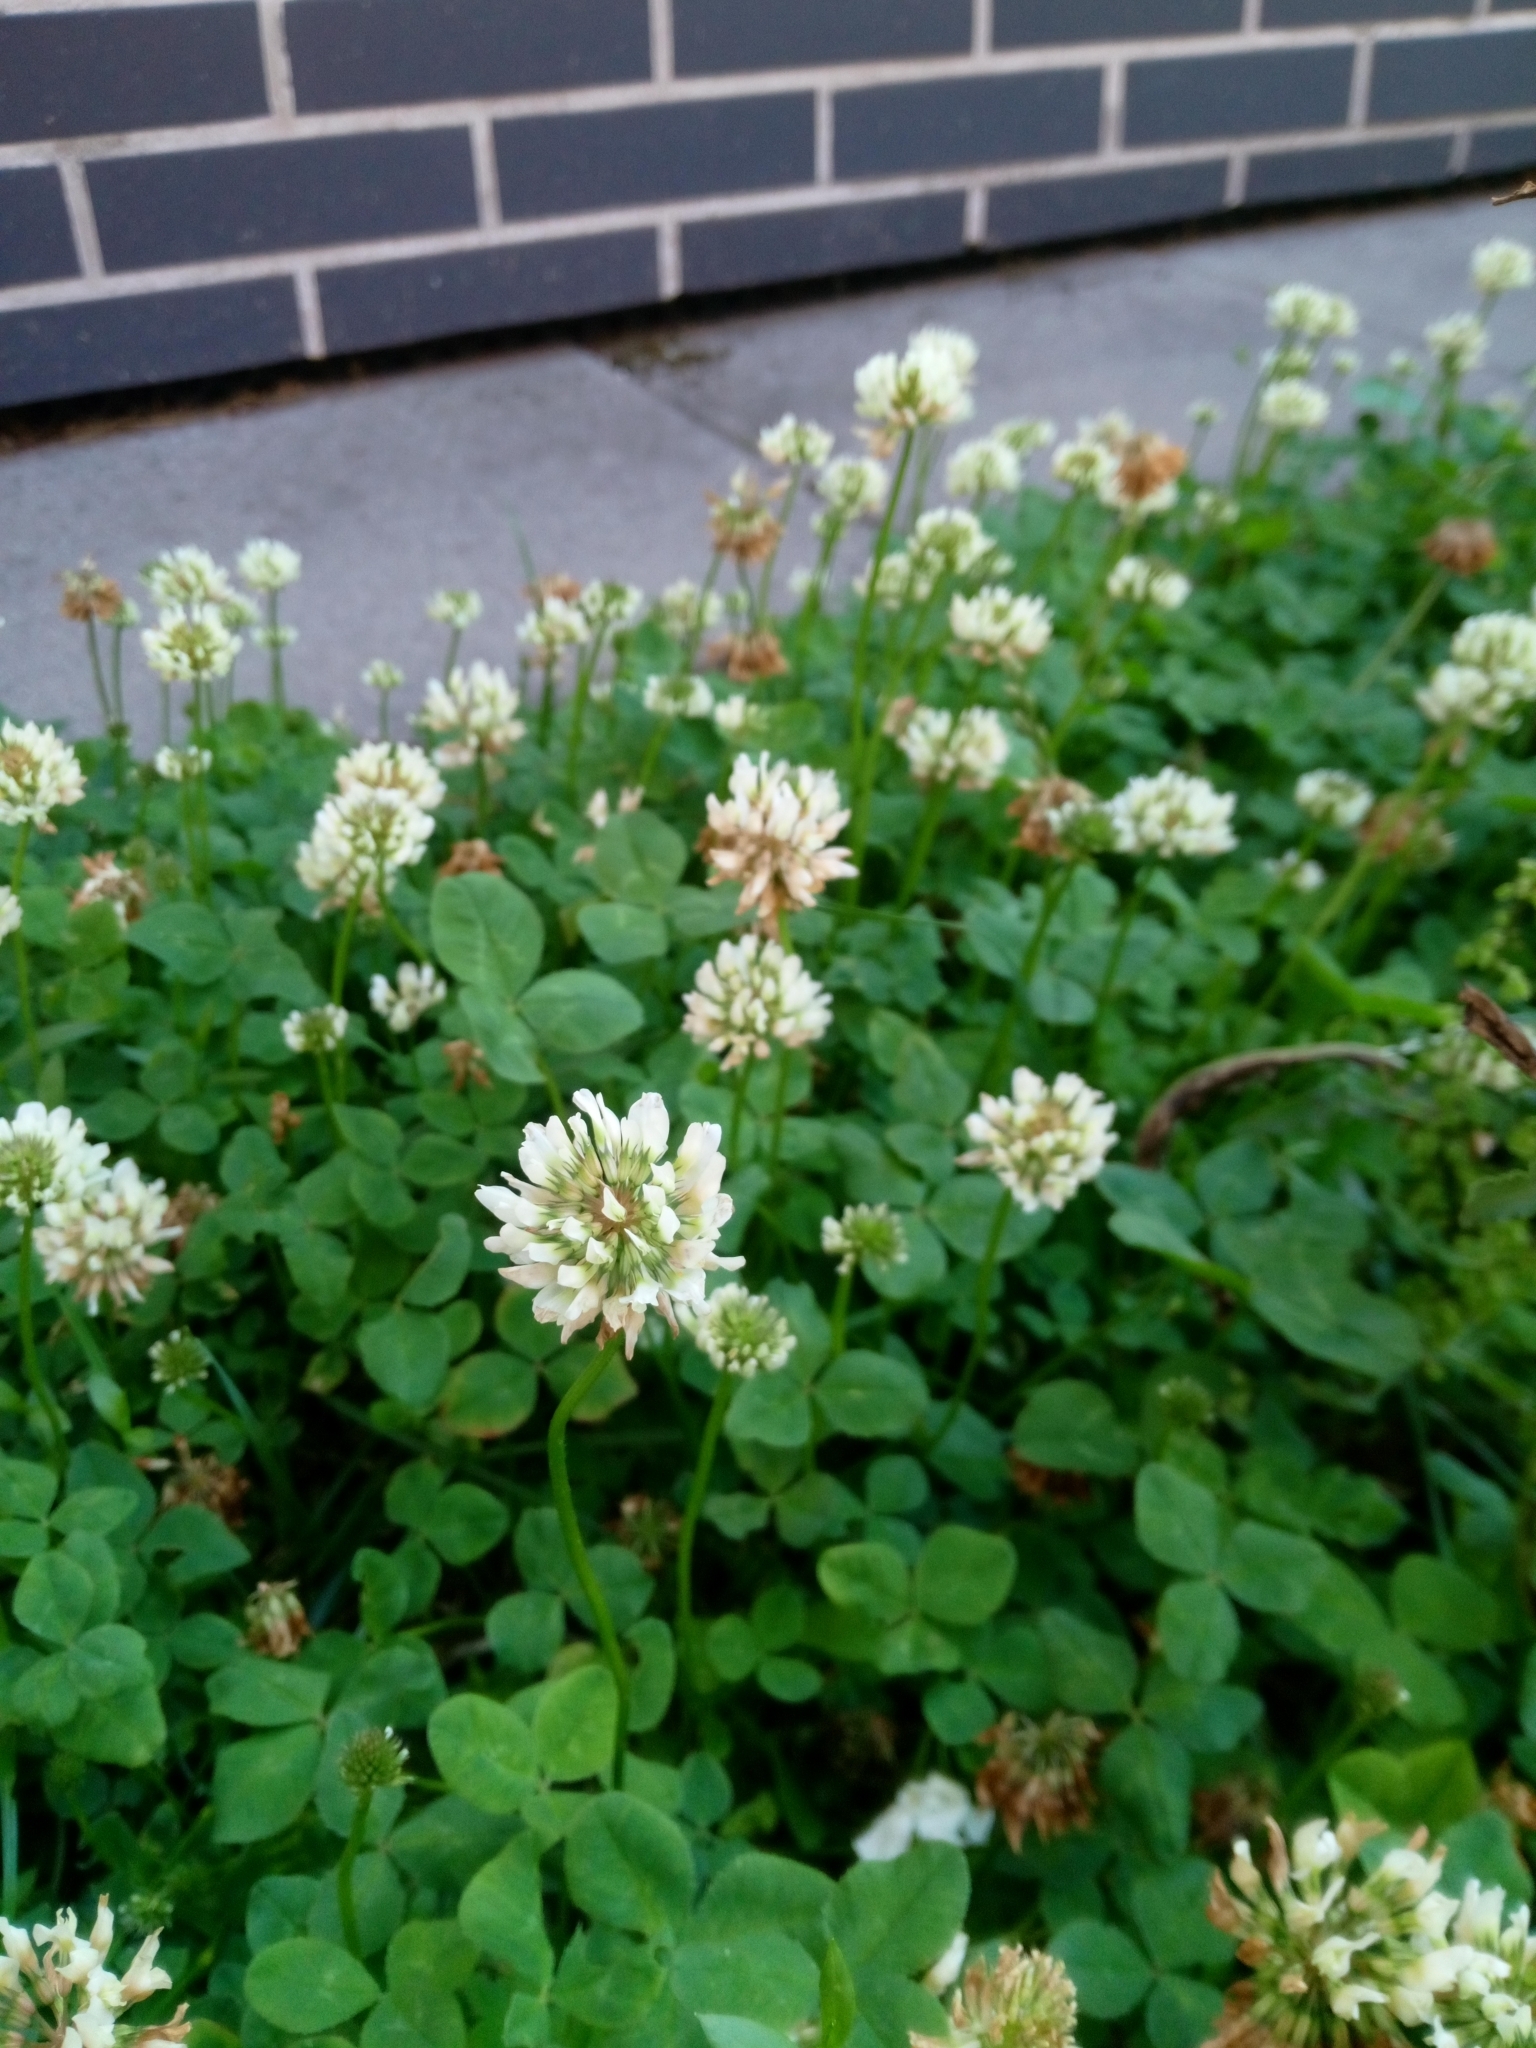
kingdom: Plantae
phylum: Tracheophyta
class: Magnoliopsida
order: Fabales
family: Fabaceae
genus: Trifolium
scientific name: Trifolium repens
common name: White clover
